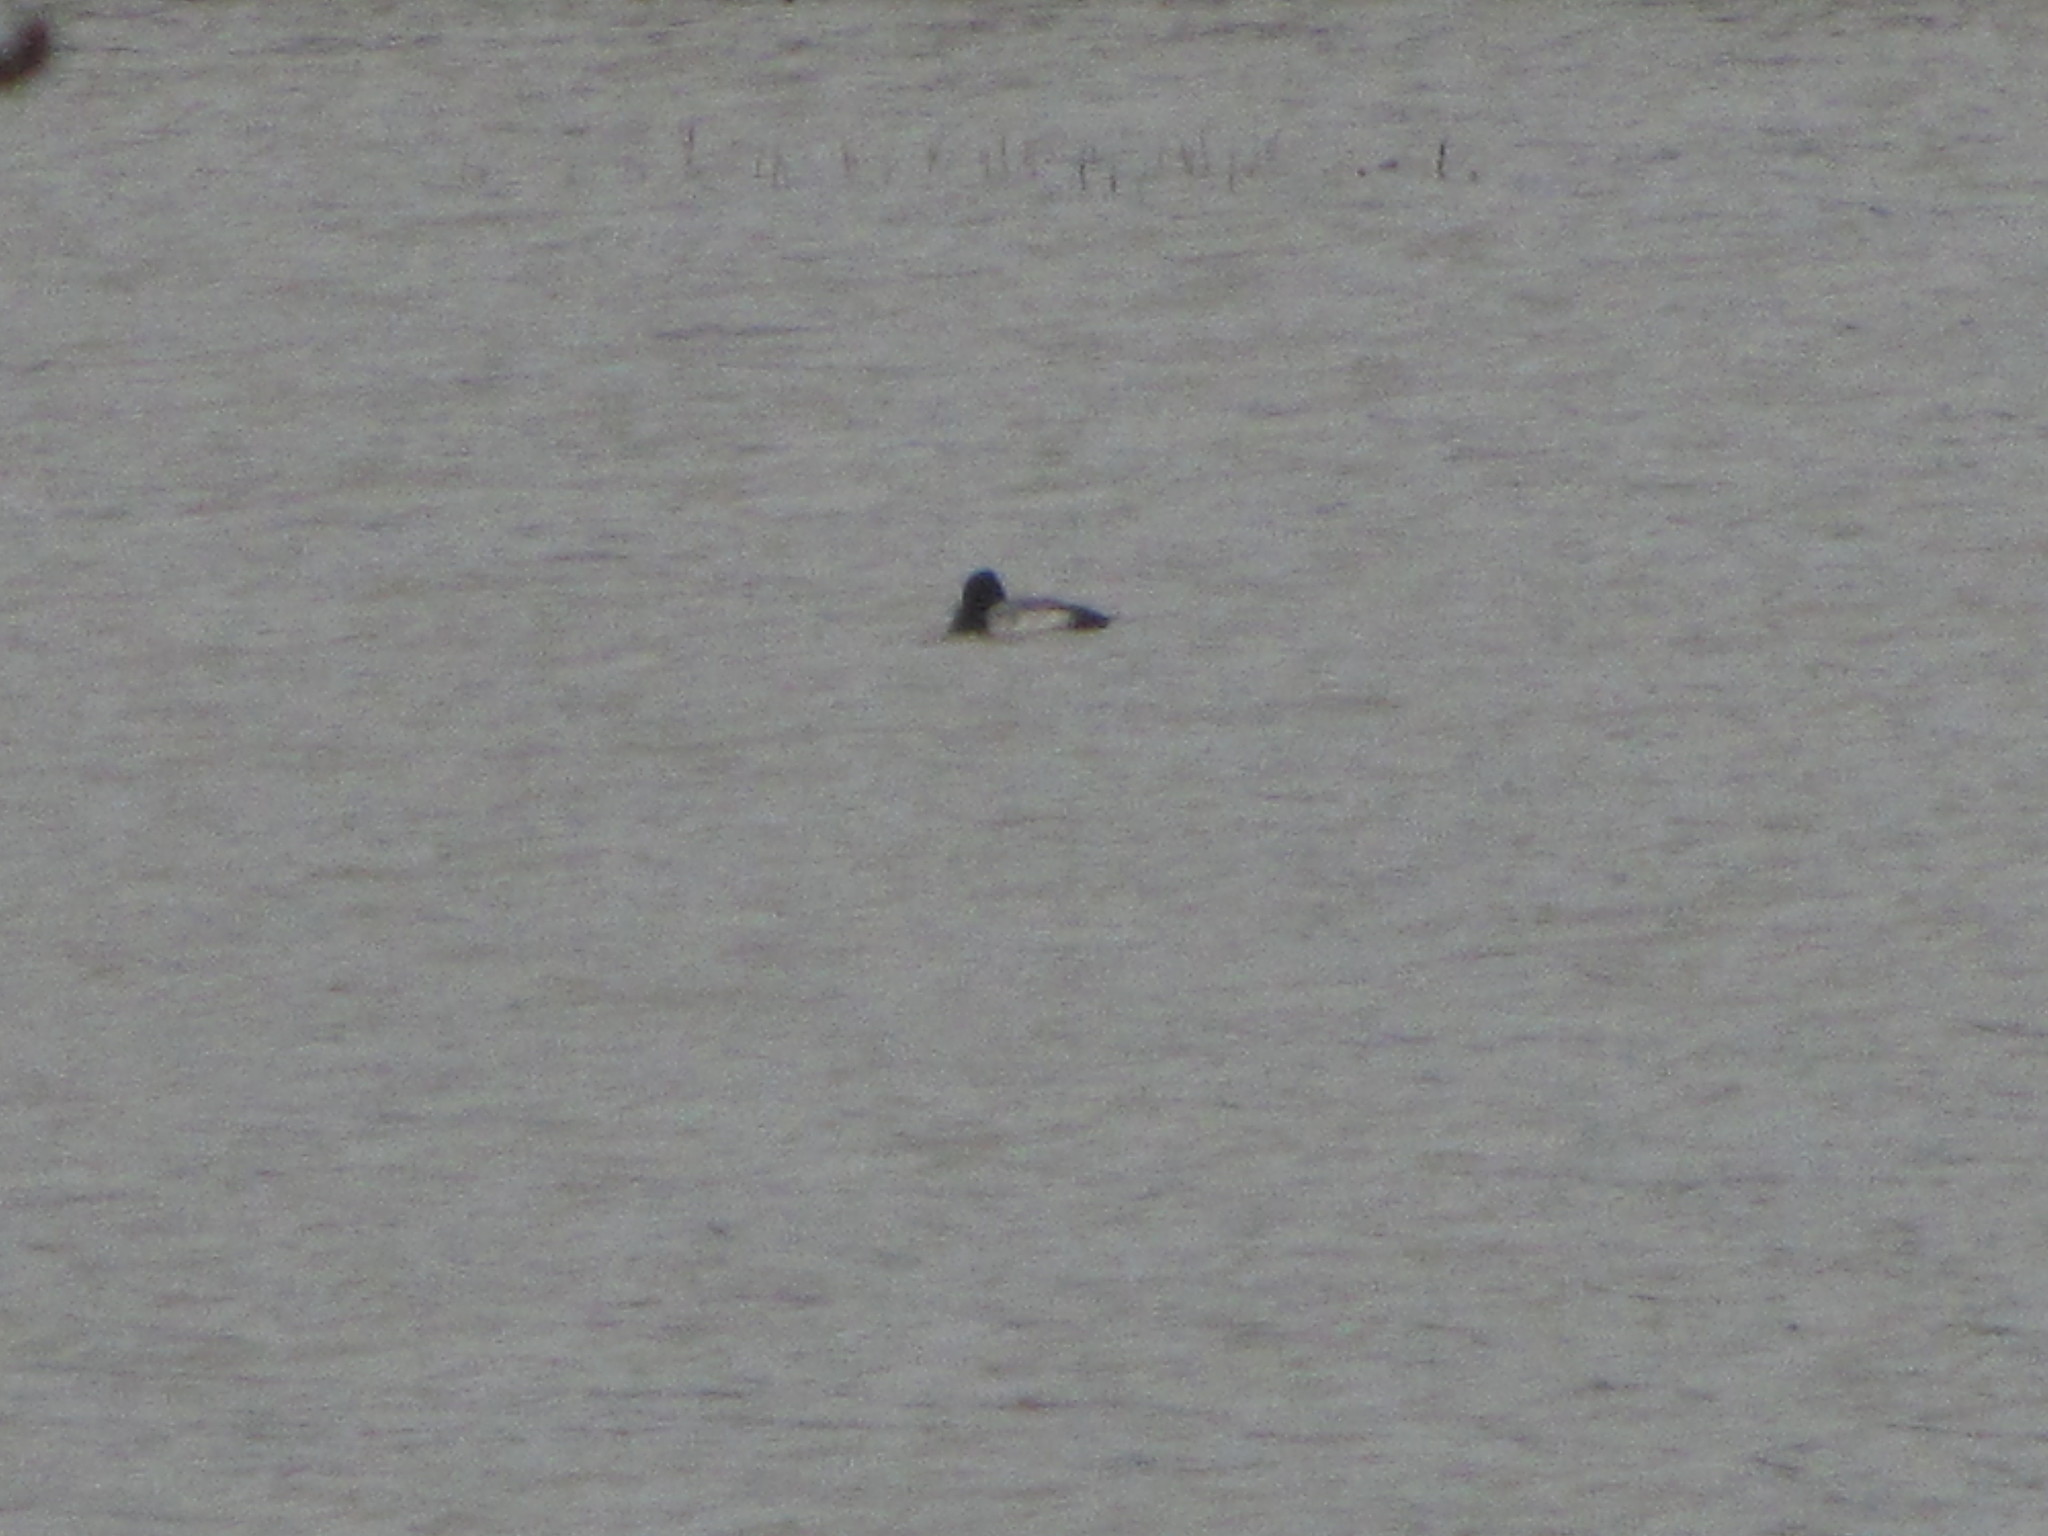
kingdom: Animalia
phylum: Chordata
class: Aves
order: Anseriformes
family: Anatidae
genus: Aythya
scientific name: Aythya affinis
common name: Lesser scaup
